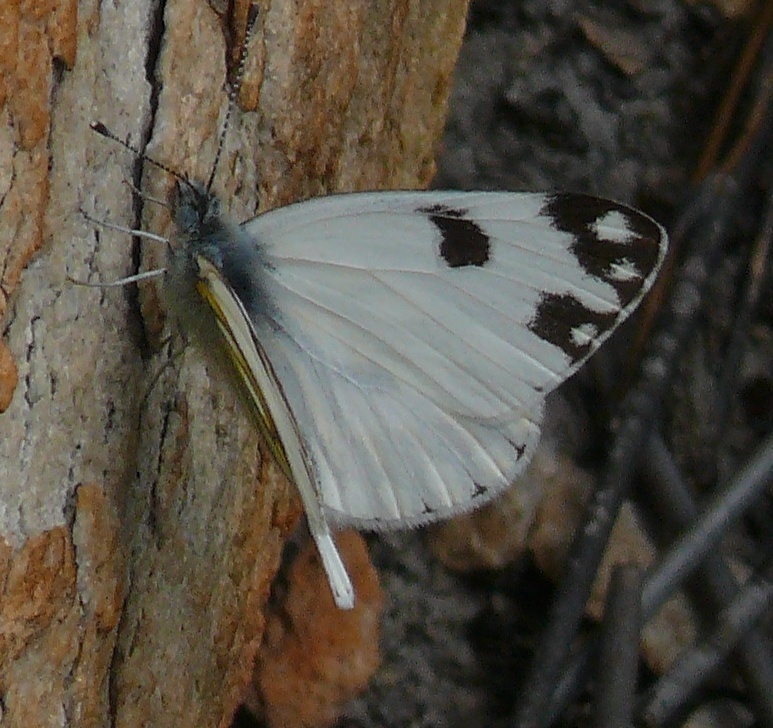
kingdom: Animalia
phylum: Arthropoda
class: Insecta
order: Lepidoptera
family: Pieridae
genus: Pontia
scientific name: Pontia helice
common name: Meadow white
